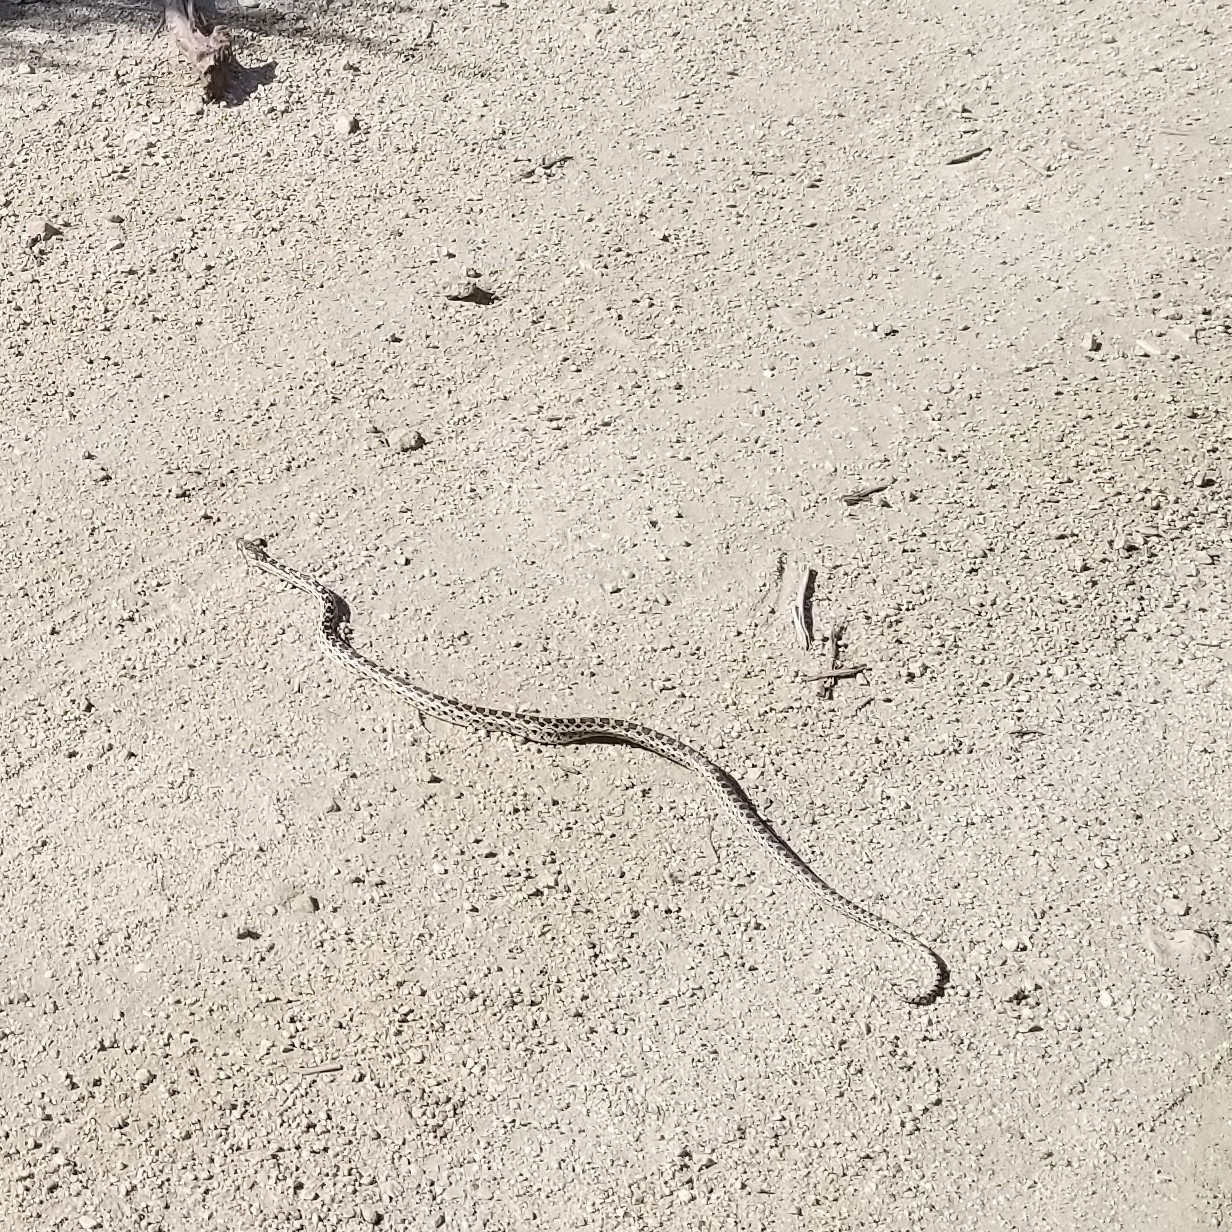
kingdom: Animalia
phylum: Chordata
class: Squamata
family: Colubridae
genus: Pituophis
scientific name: Pituophis catenifer
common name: Gopher snake
